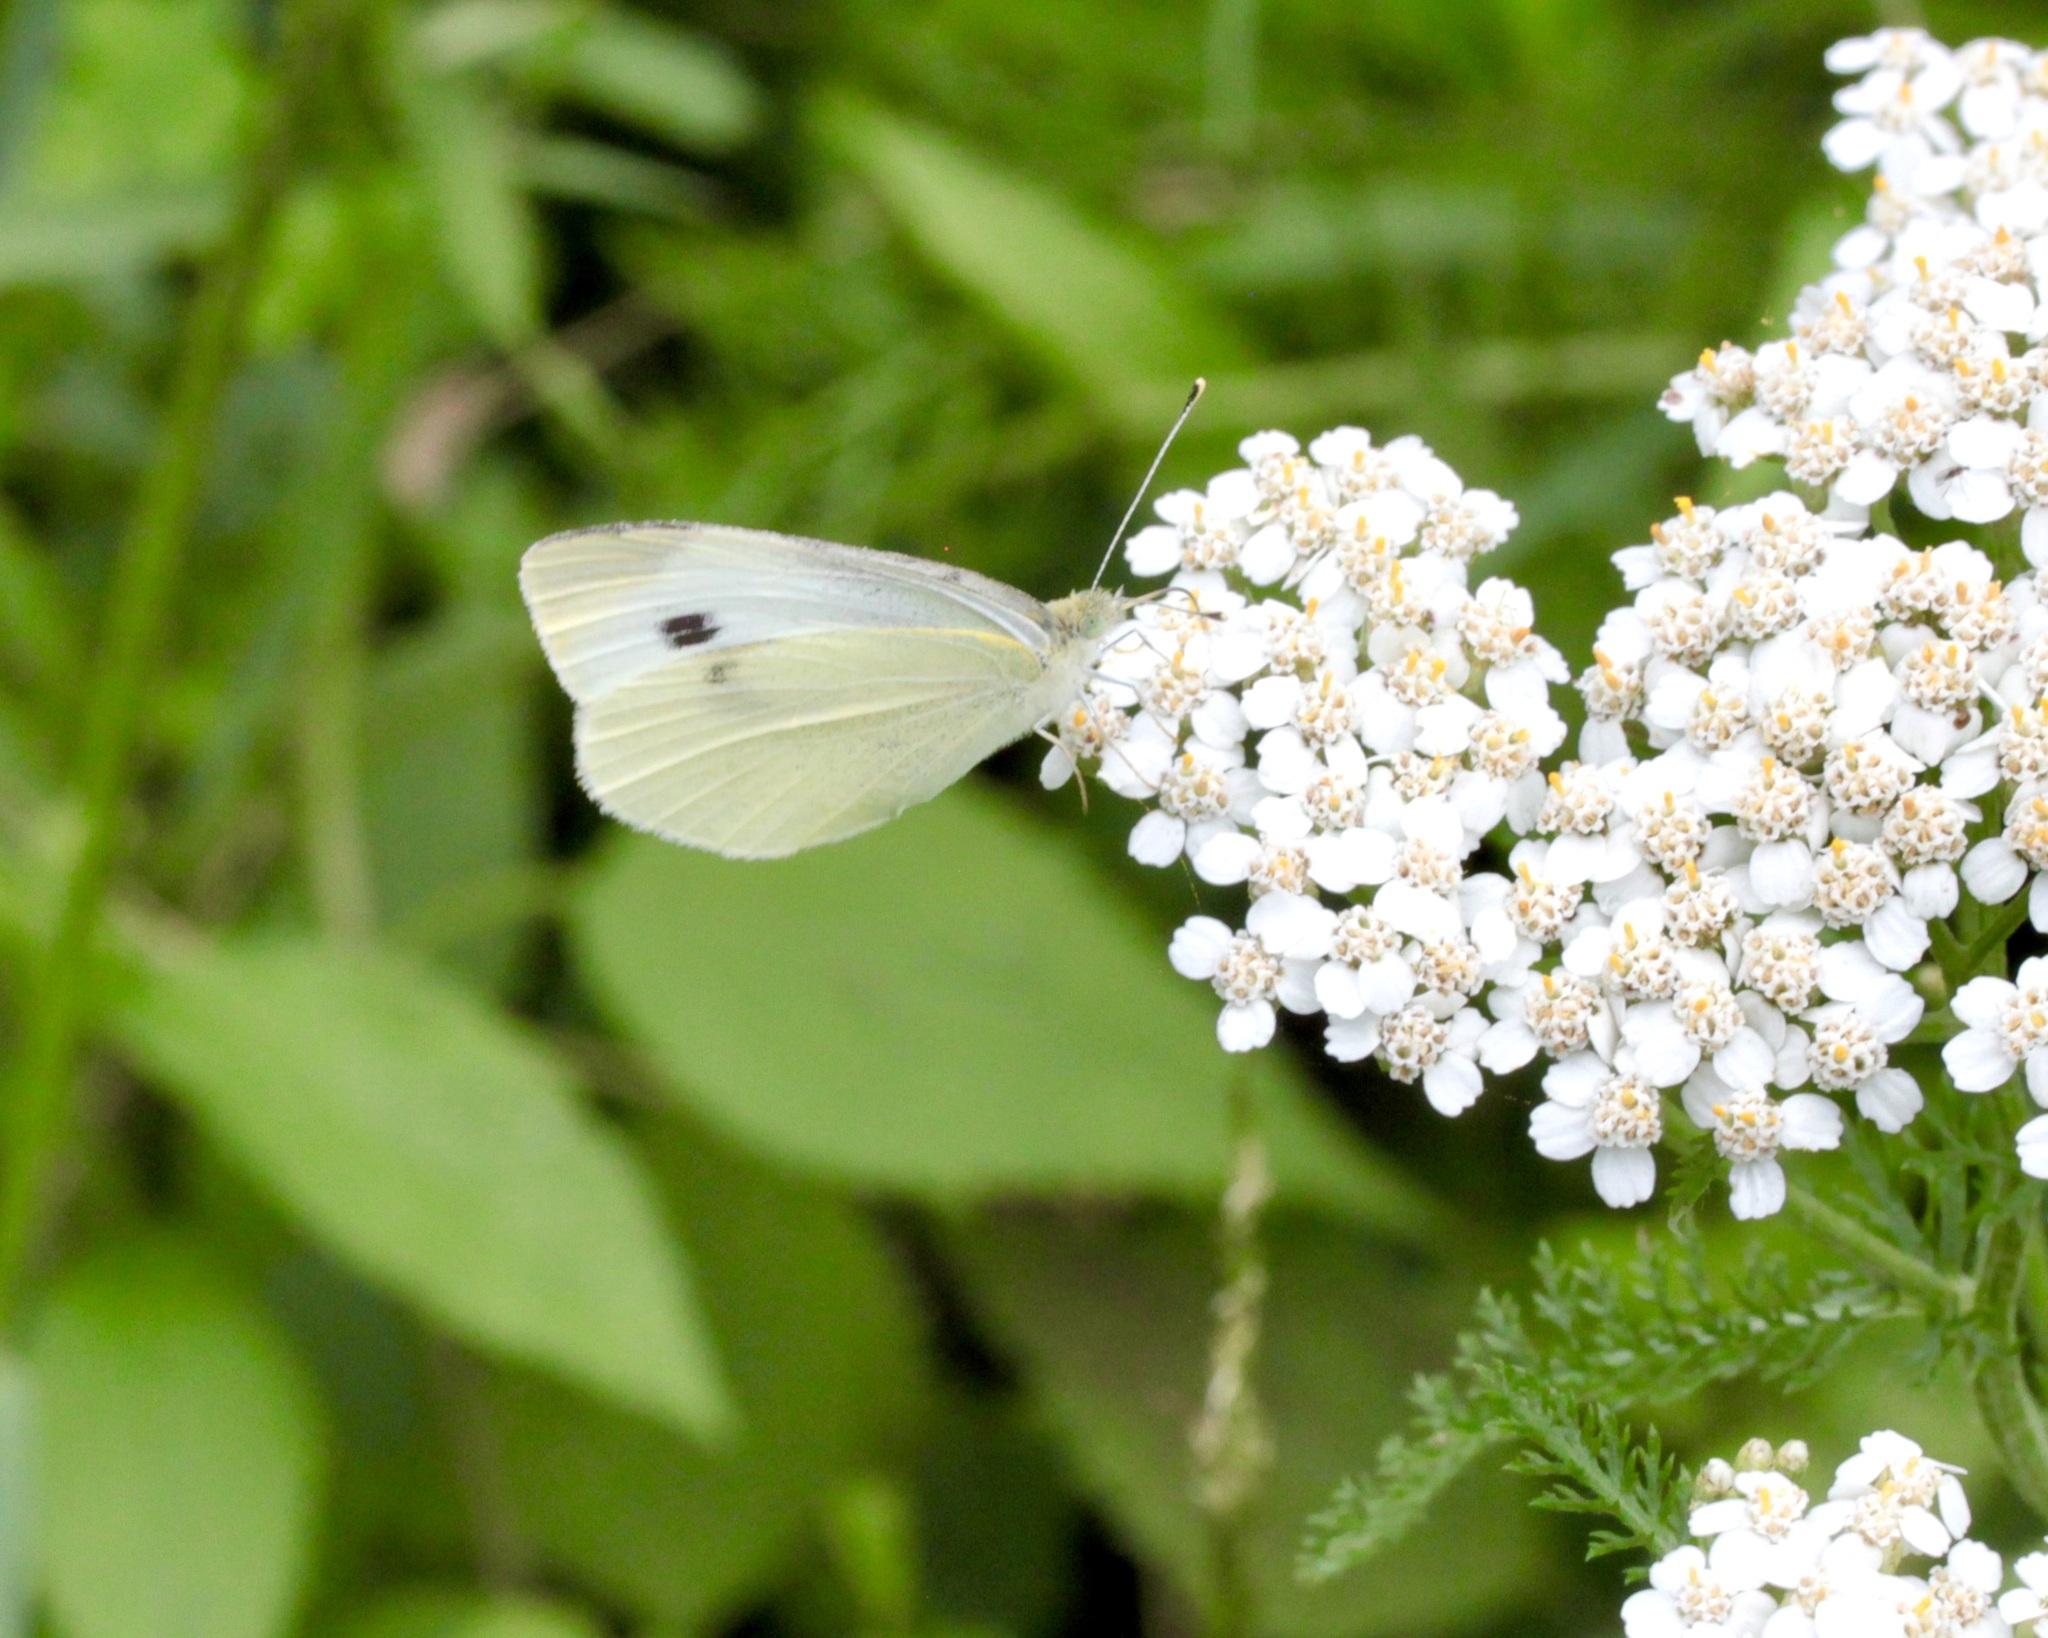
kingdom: Animalia
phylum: Arthropoda
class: Insecta
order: Lepidoptera
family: Pieridae
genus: Pieris
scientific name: Pieris rapae
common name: Small white
